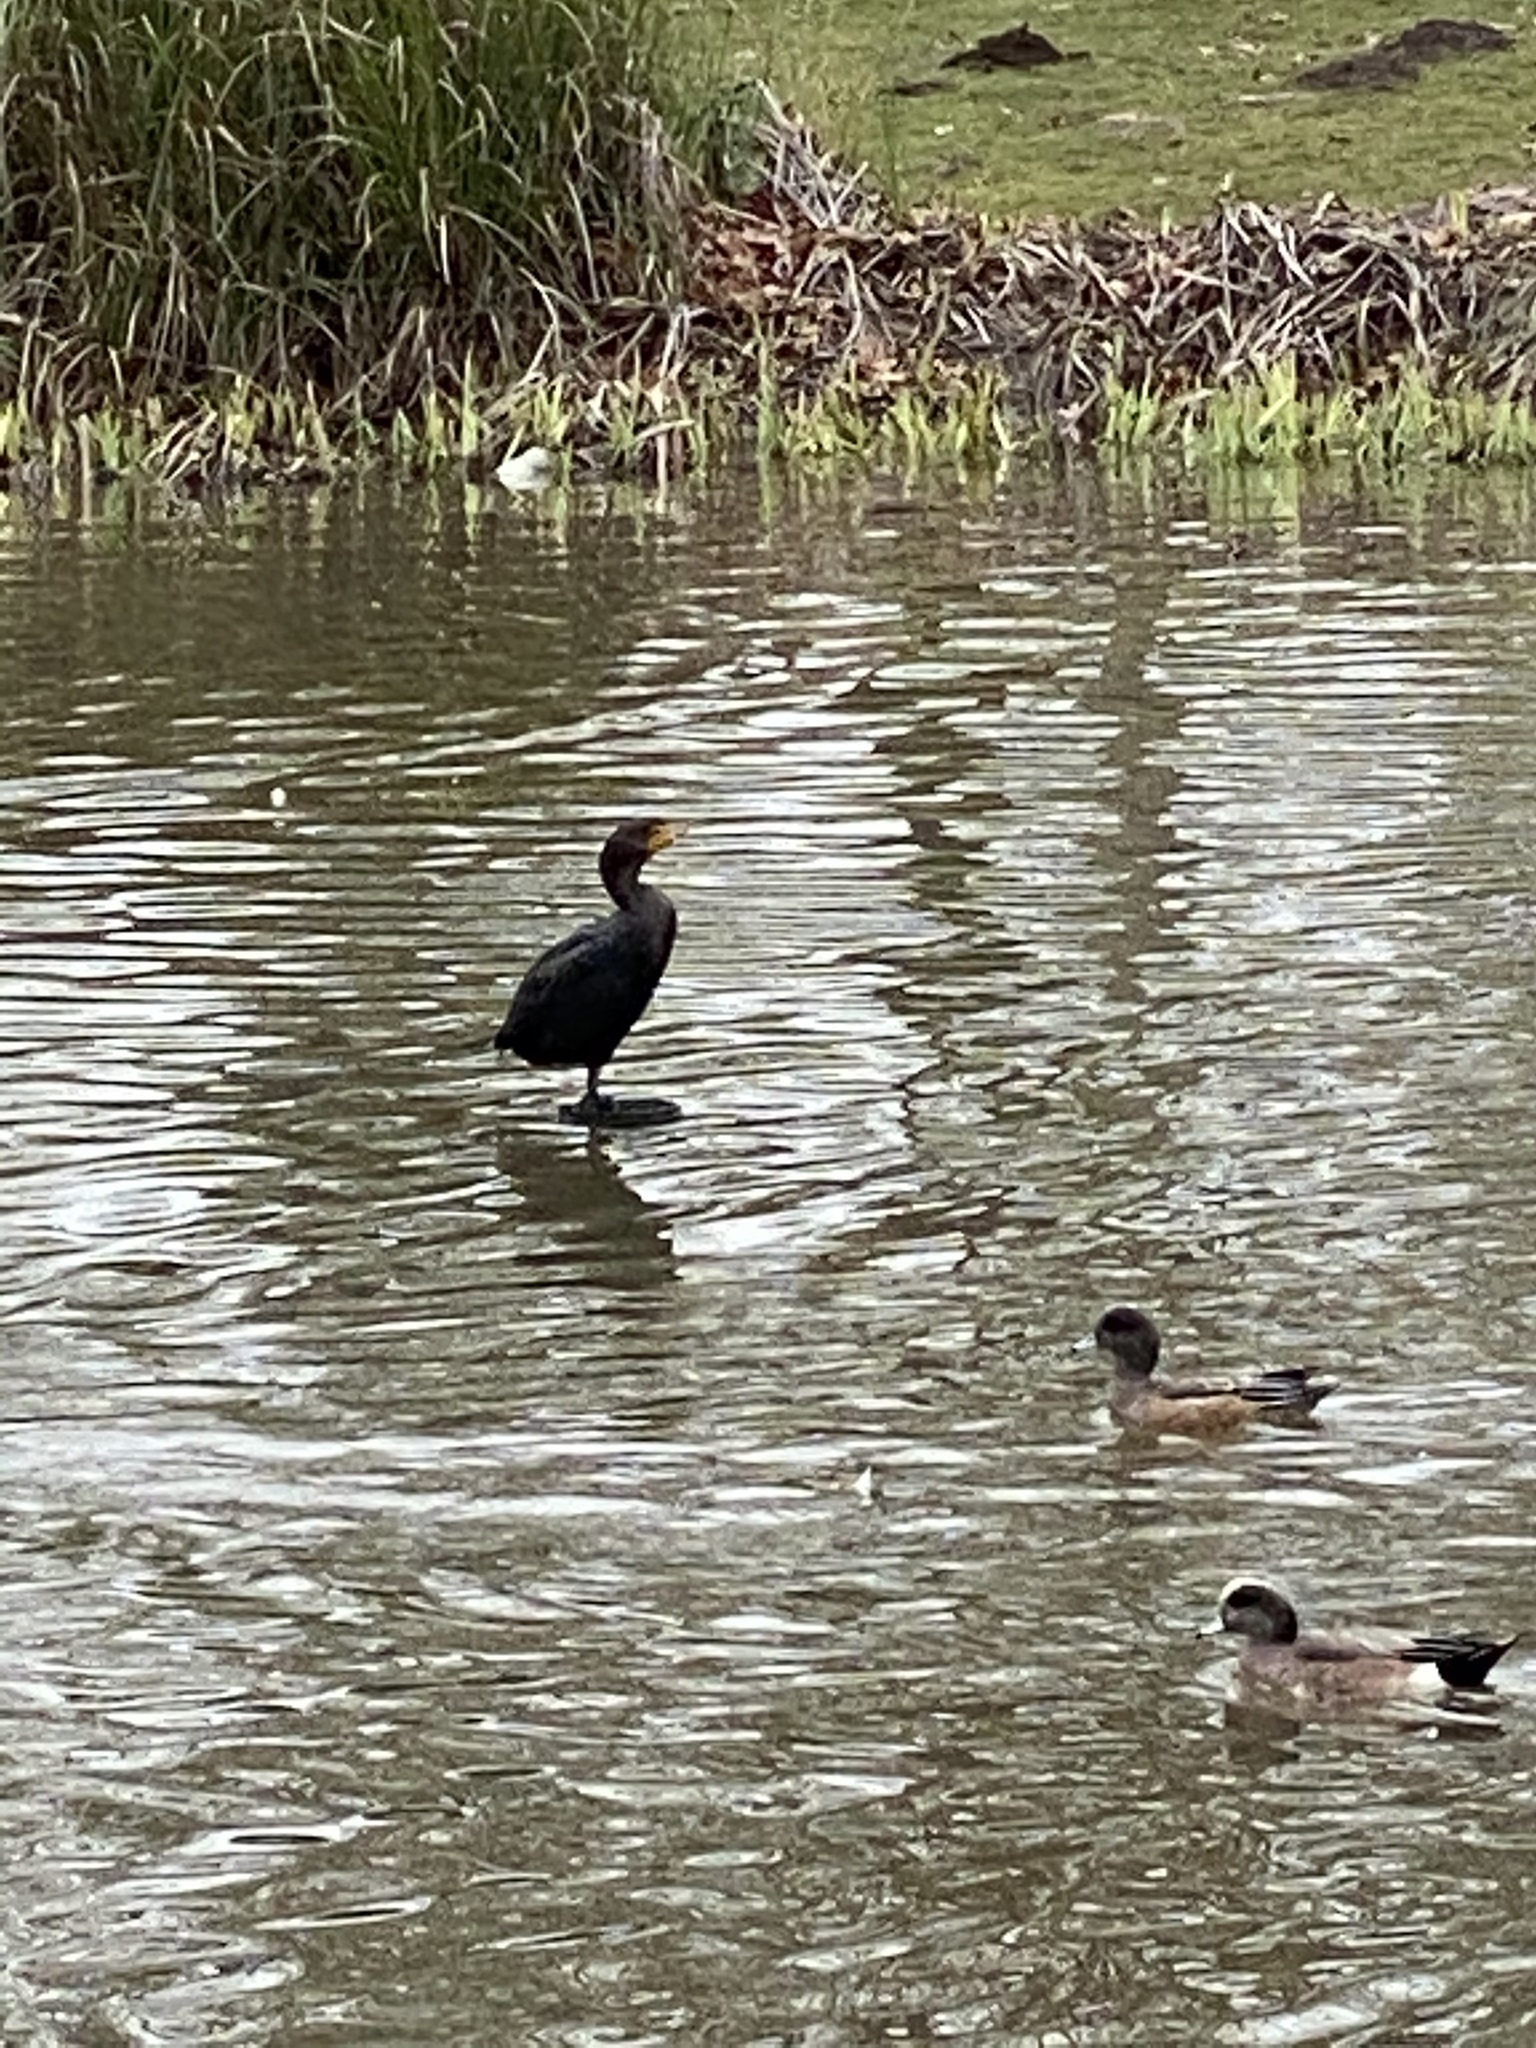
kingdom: Animalia
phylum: Chordata
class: Aves
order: Suliformes
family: Phalacrocoracidae
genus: Phalacrocorax
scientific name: Phalacrocorax auritus
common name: Double-crested cormorant
